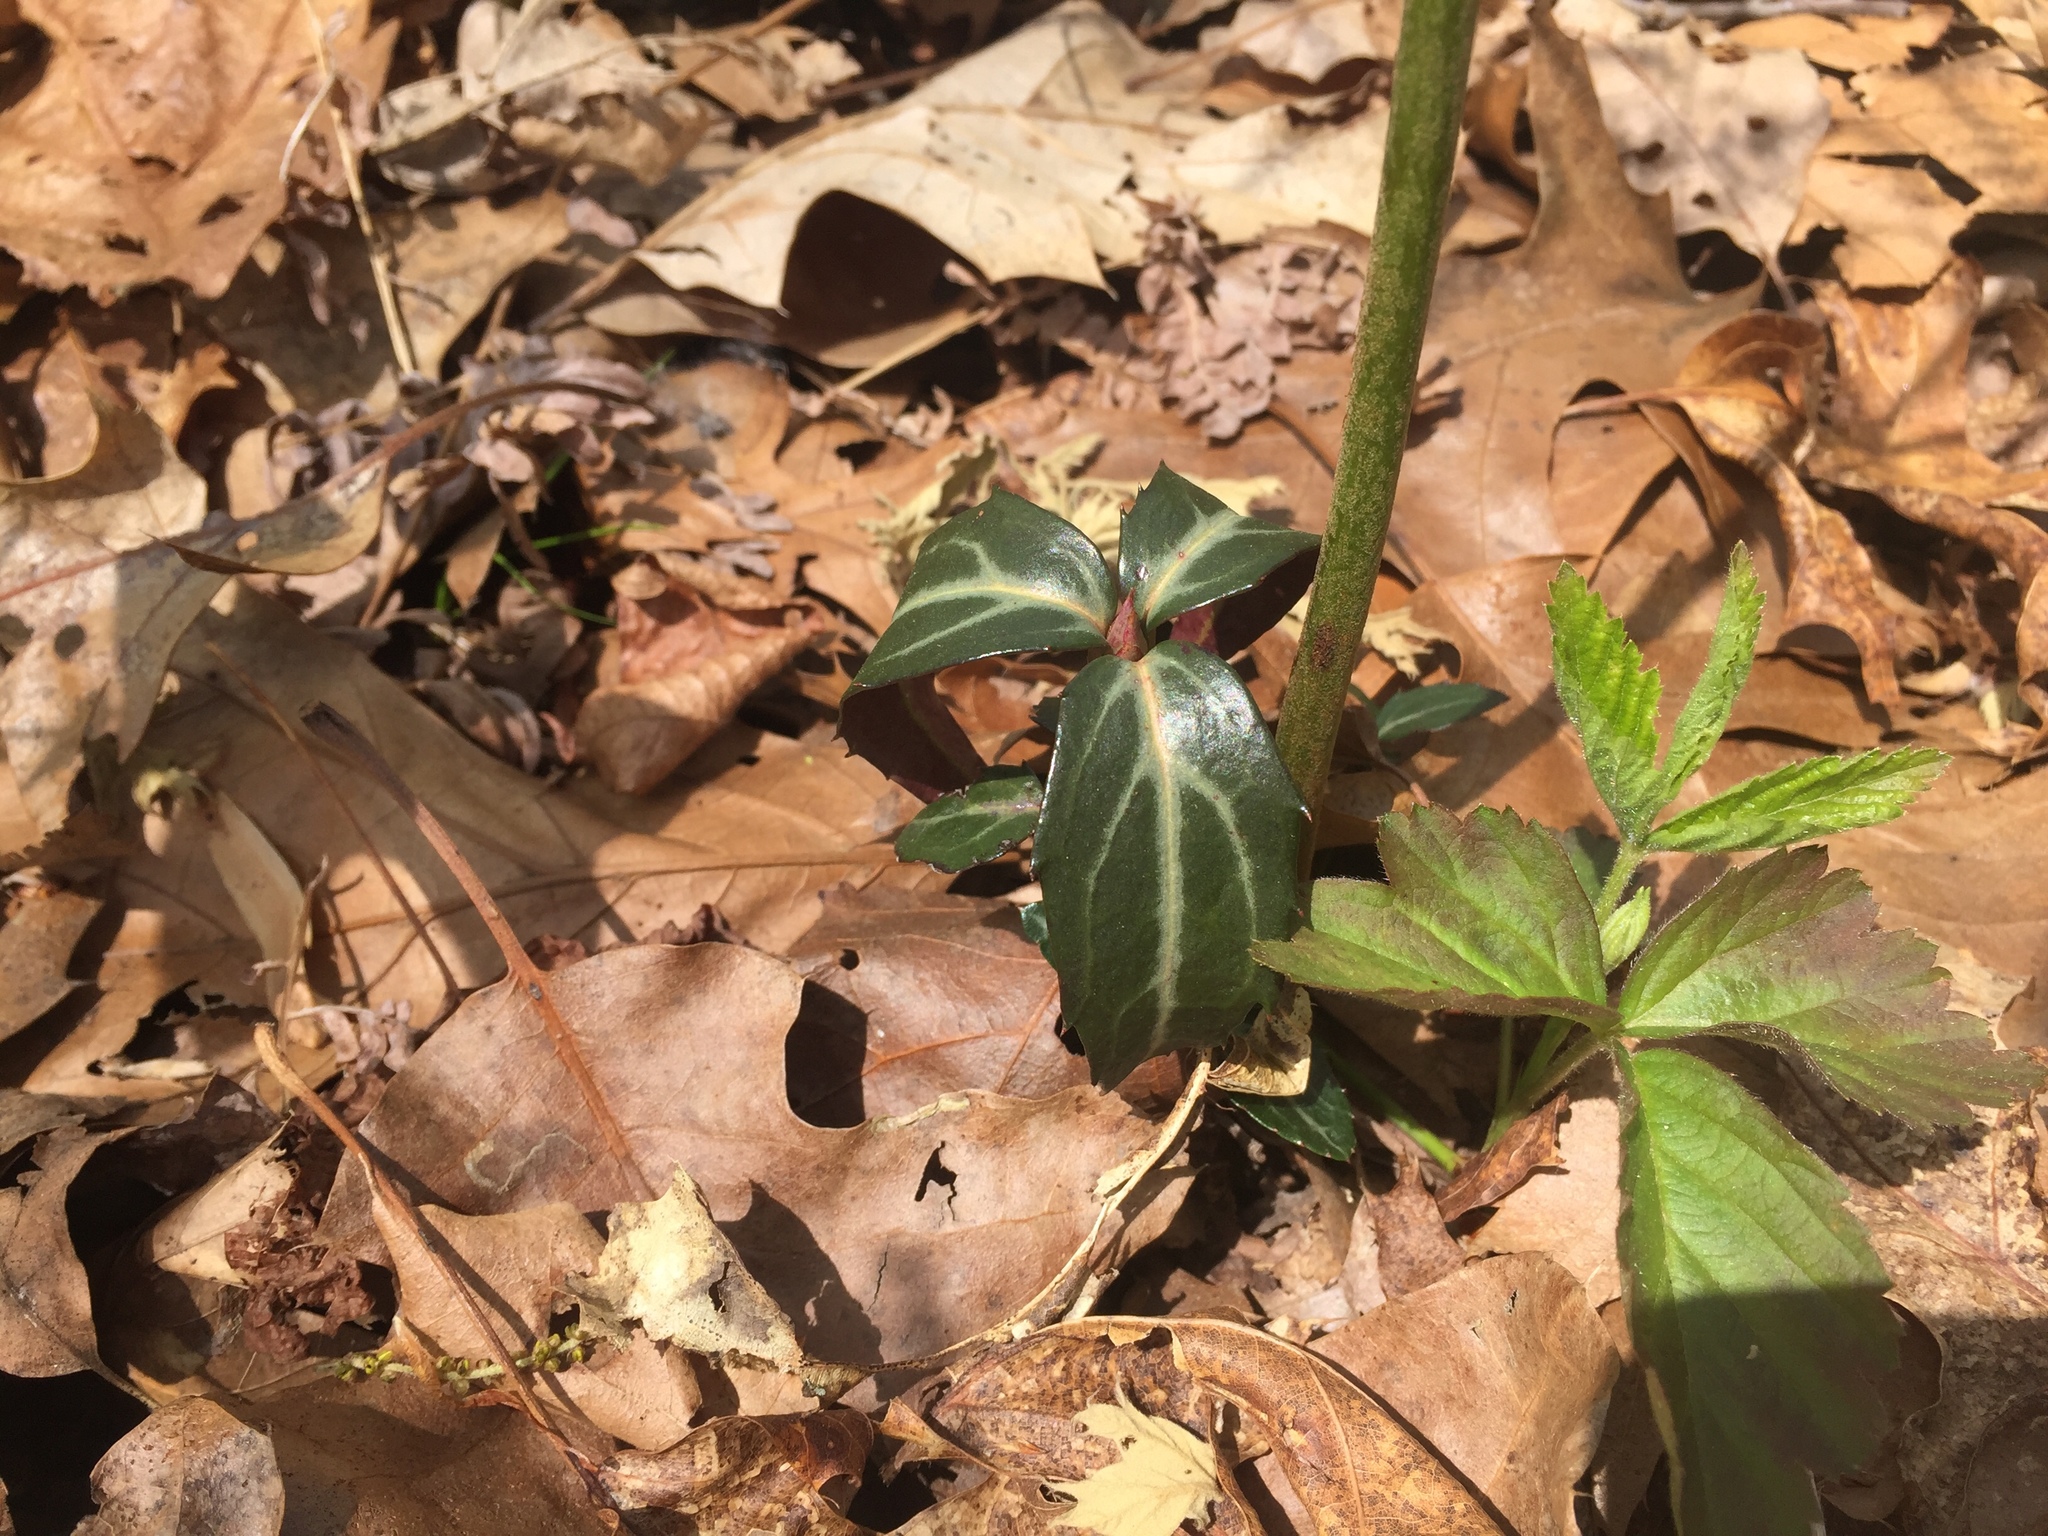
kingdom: Plantae
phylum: Tracheophyta
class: Magnoliopsida
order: Ericales
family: Ericaceae
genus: Chimaphila
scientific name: Chimaphila maculata
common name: Spotted pipsissewa
